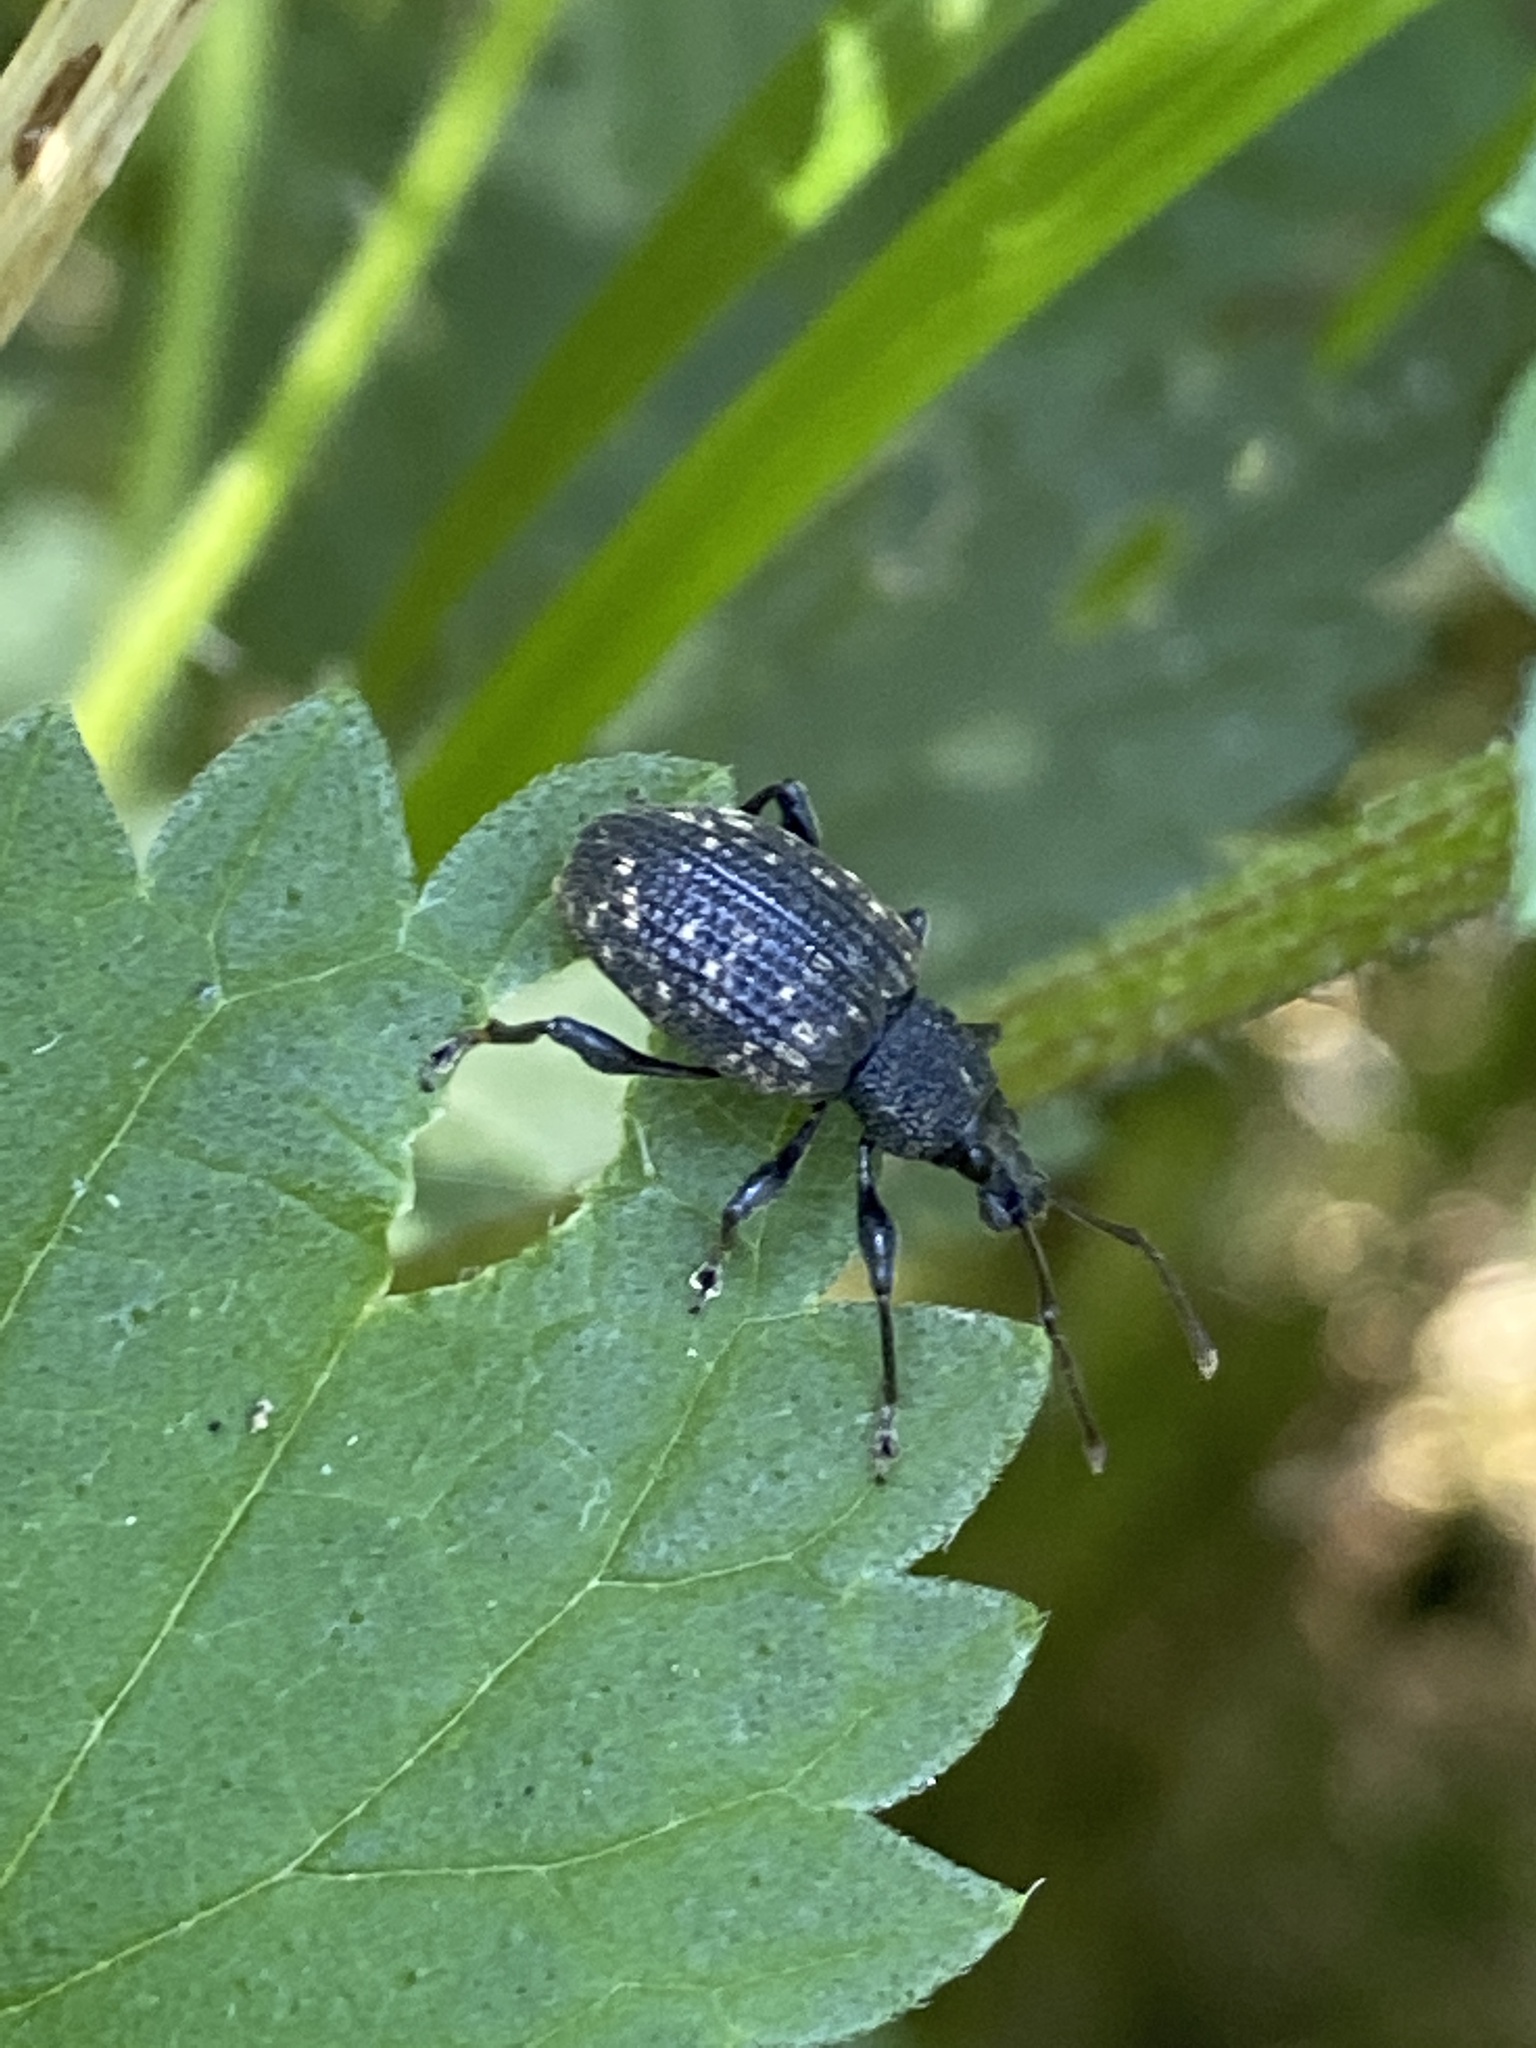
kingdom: Animalia
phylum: Arthropoda
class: Insecta
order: Coleoptera
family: Curculionidae
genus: Otiorhynchus
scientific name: Otiorhynchus sulcatus
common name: Black vine weevil
